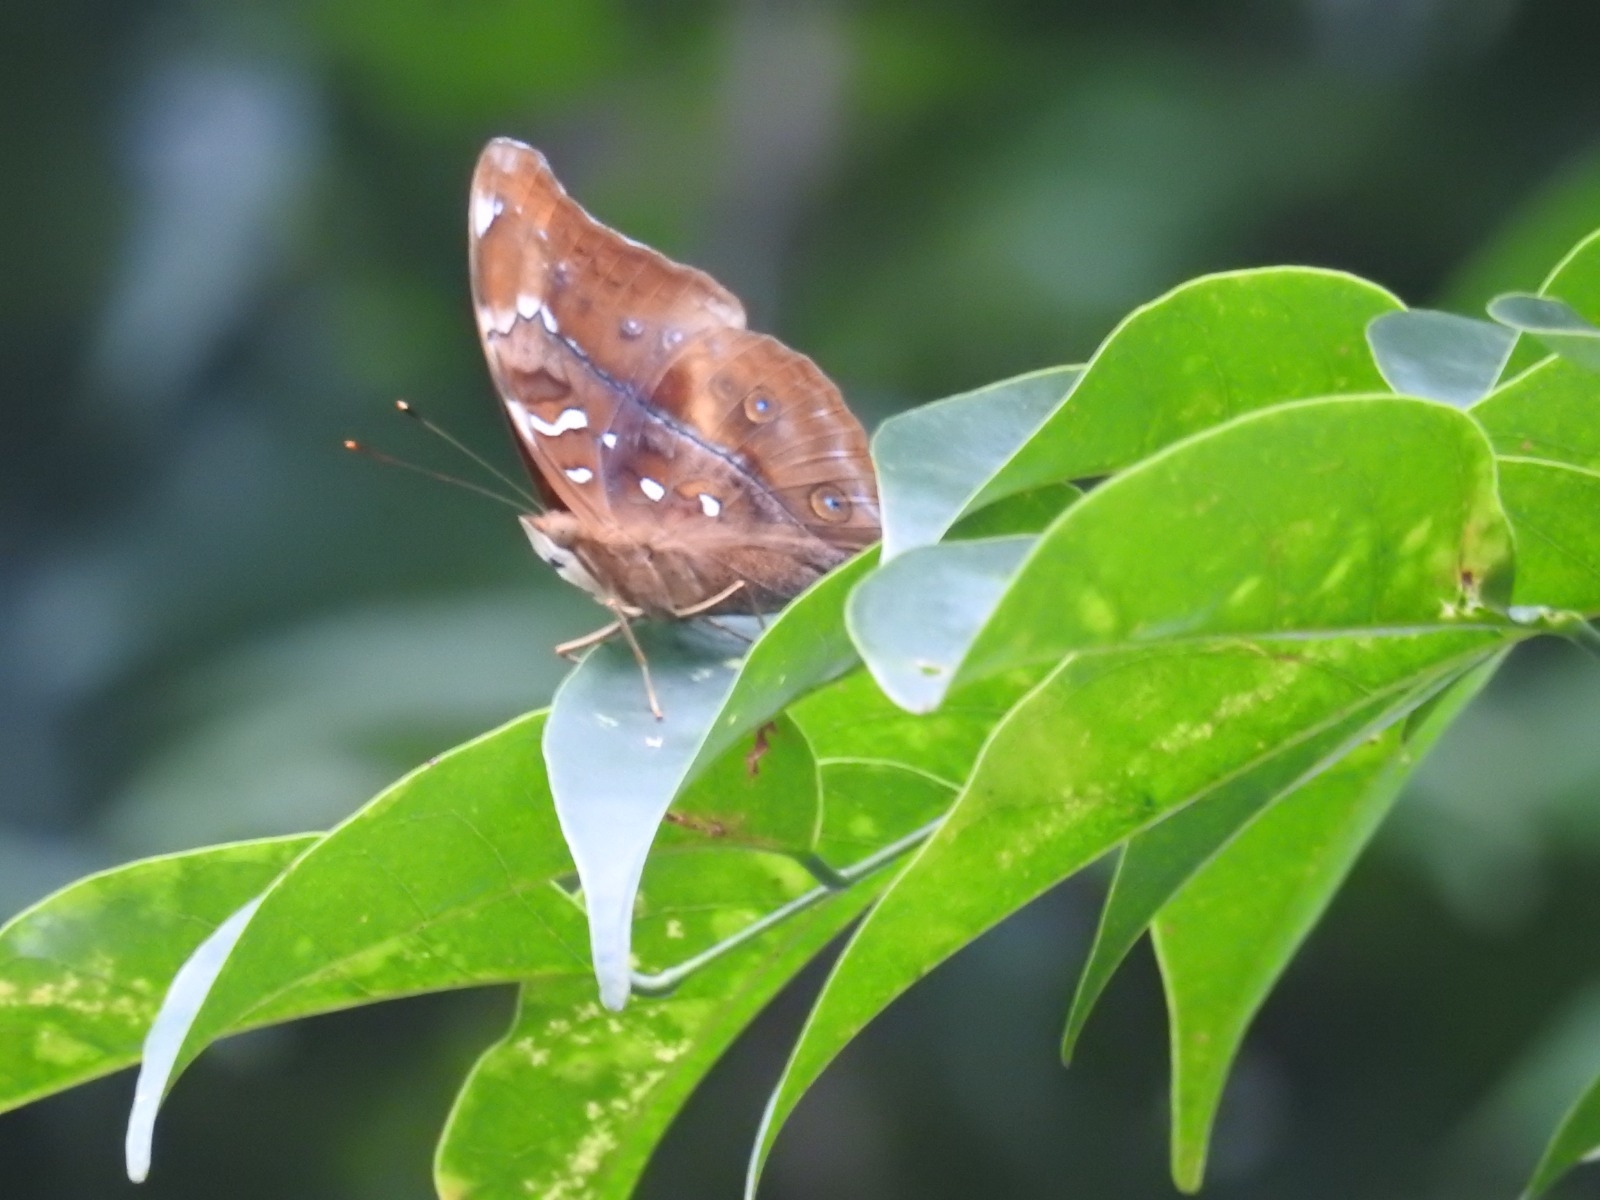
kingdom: Animalia
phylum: Arthropoda
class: Insecta
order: Lepidoptera
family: Nymphalidae
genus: Doleschallia
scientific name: Doleschallia bisaltide
